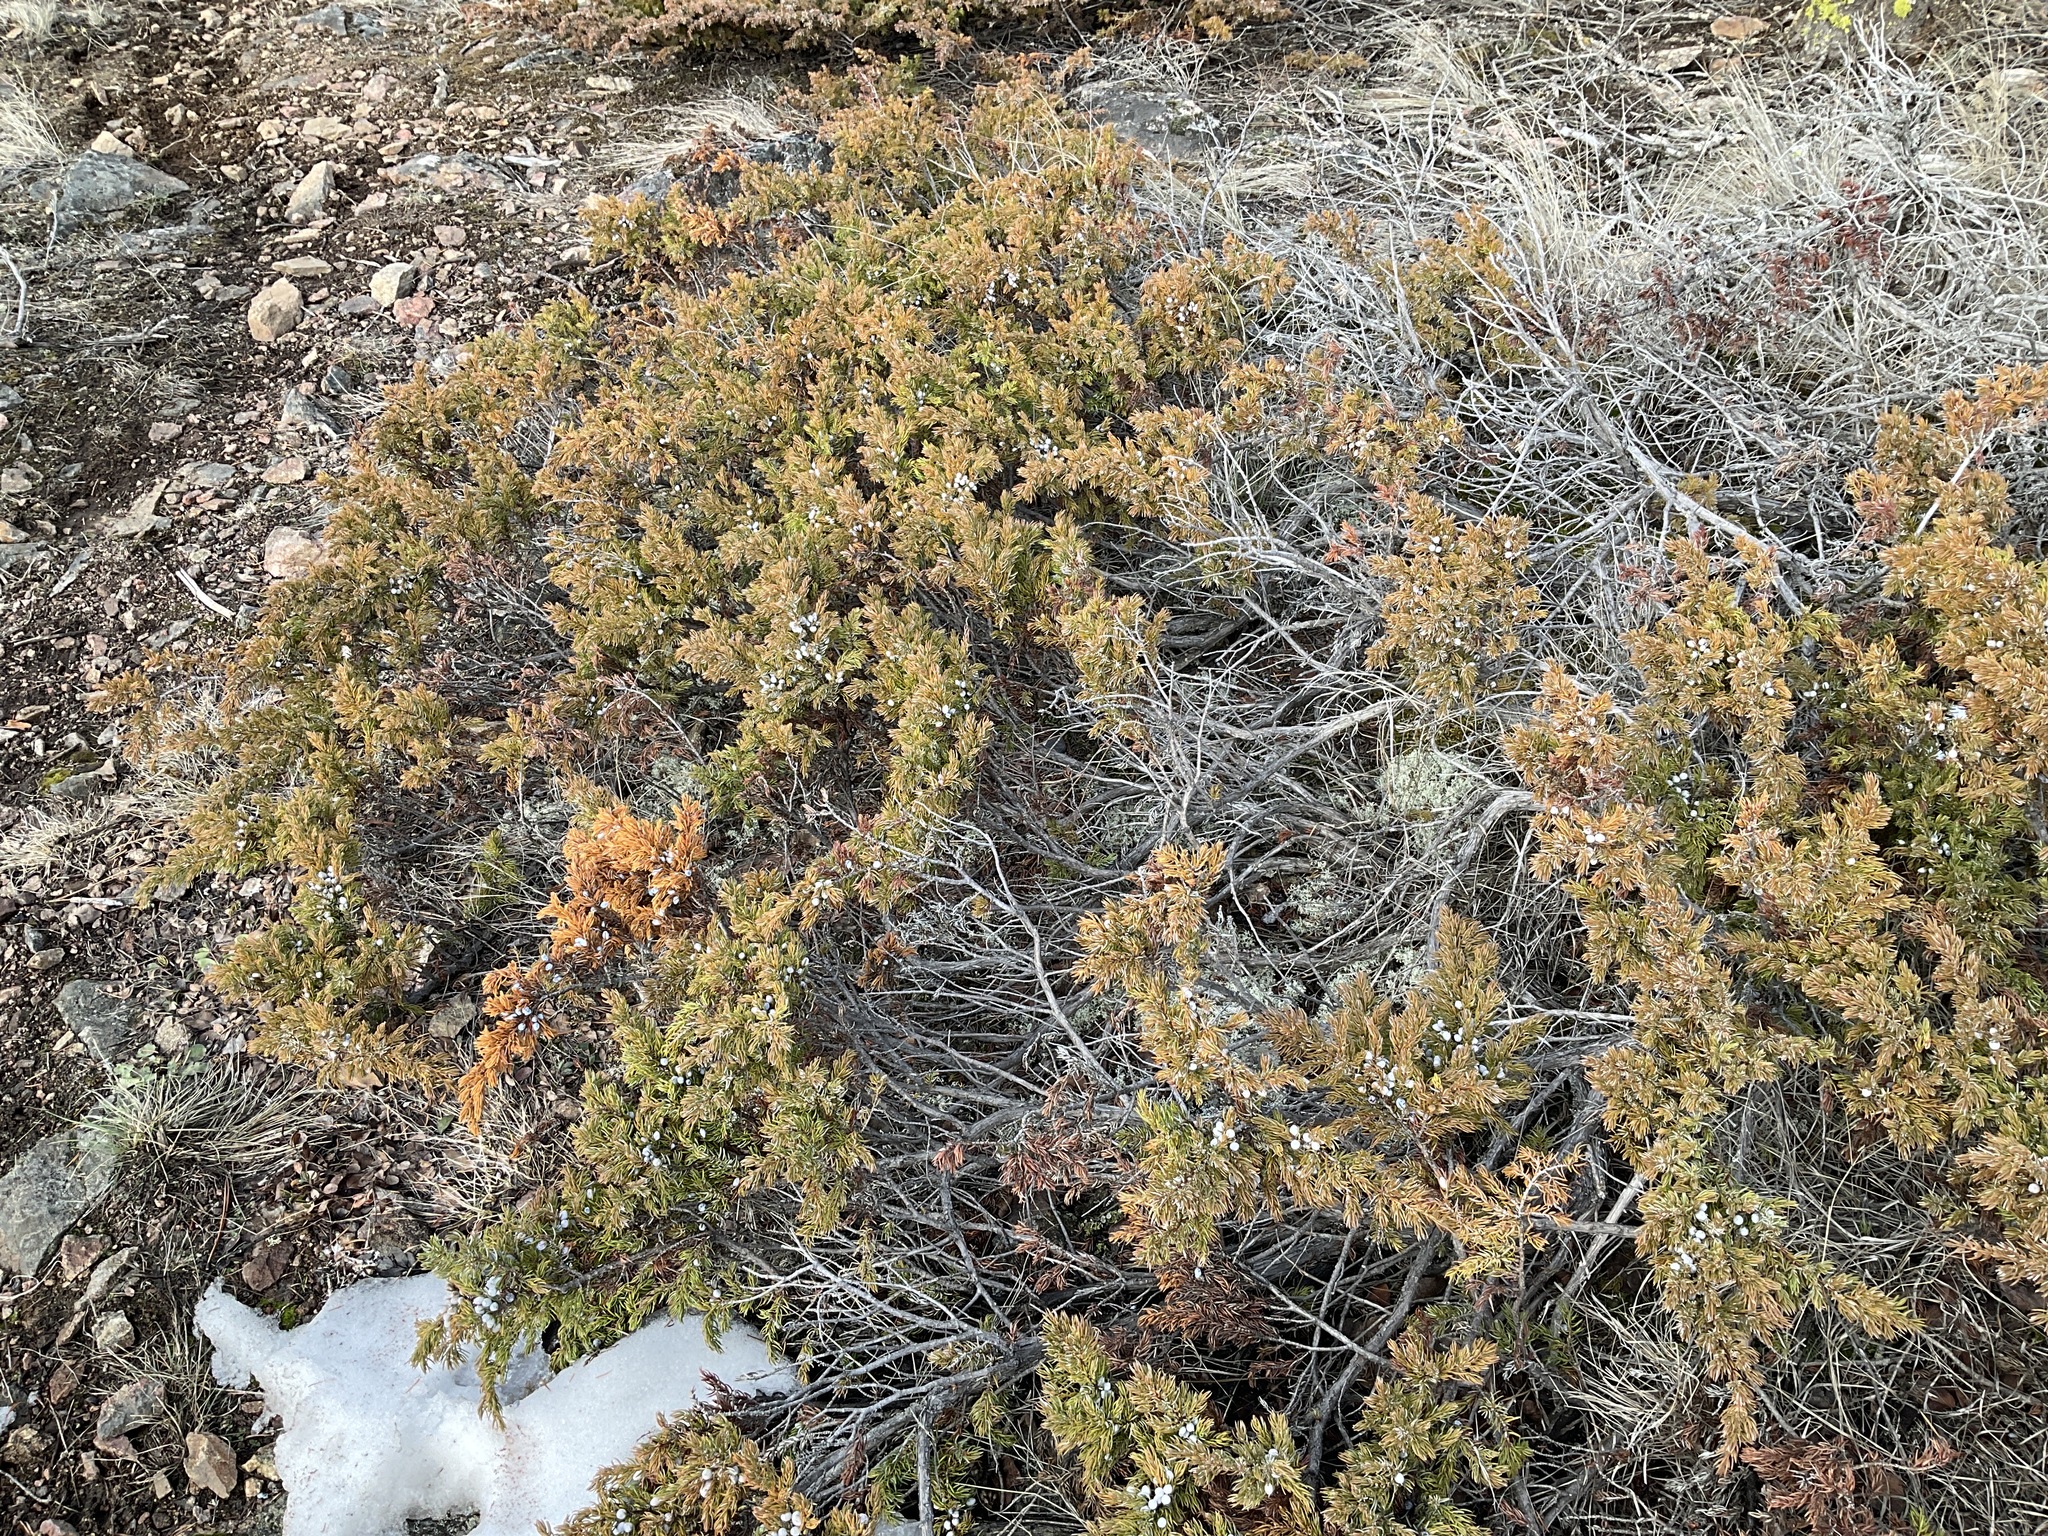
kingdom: Plantae
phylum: Tracheophyta
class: Pinopsida
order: Pinales
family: Cupressaceae
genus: Juniperus
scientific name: Juniperus communis
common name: Common juniper
